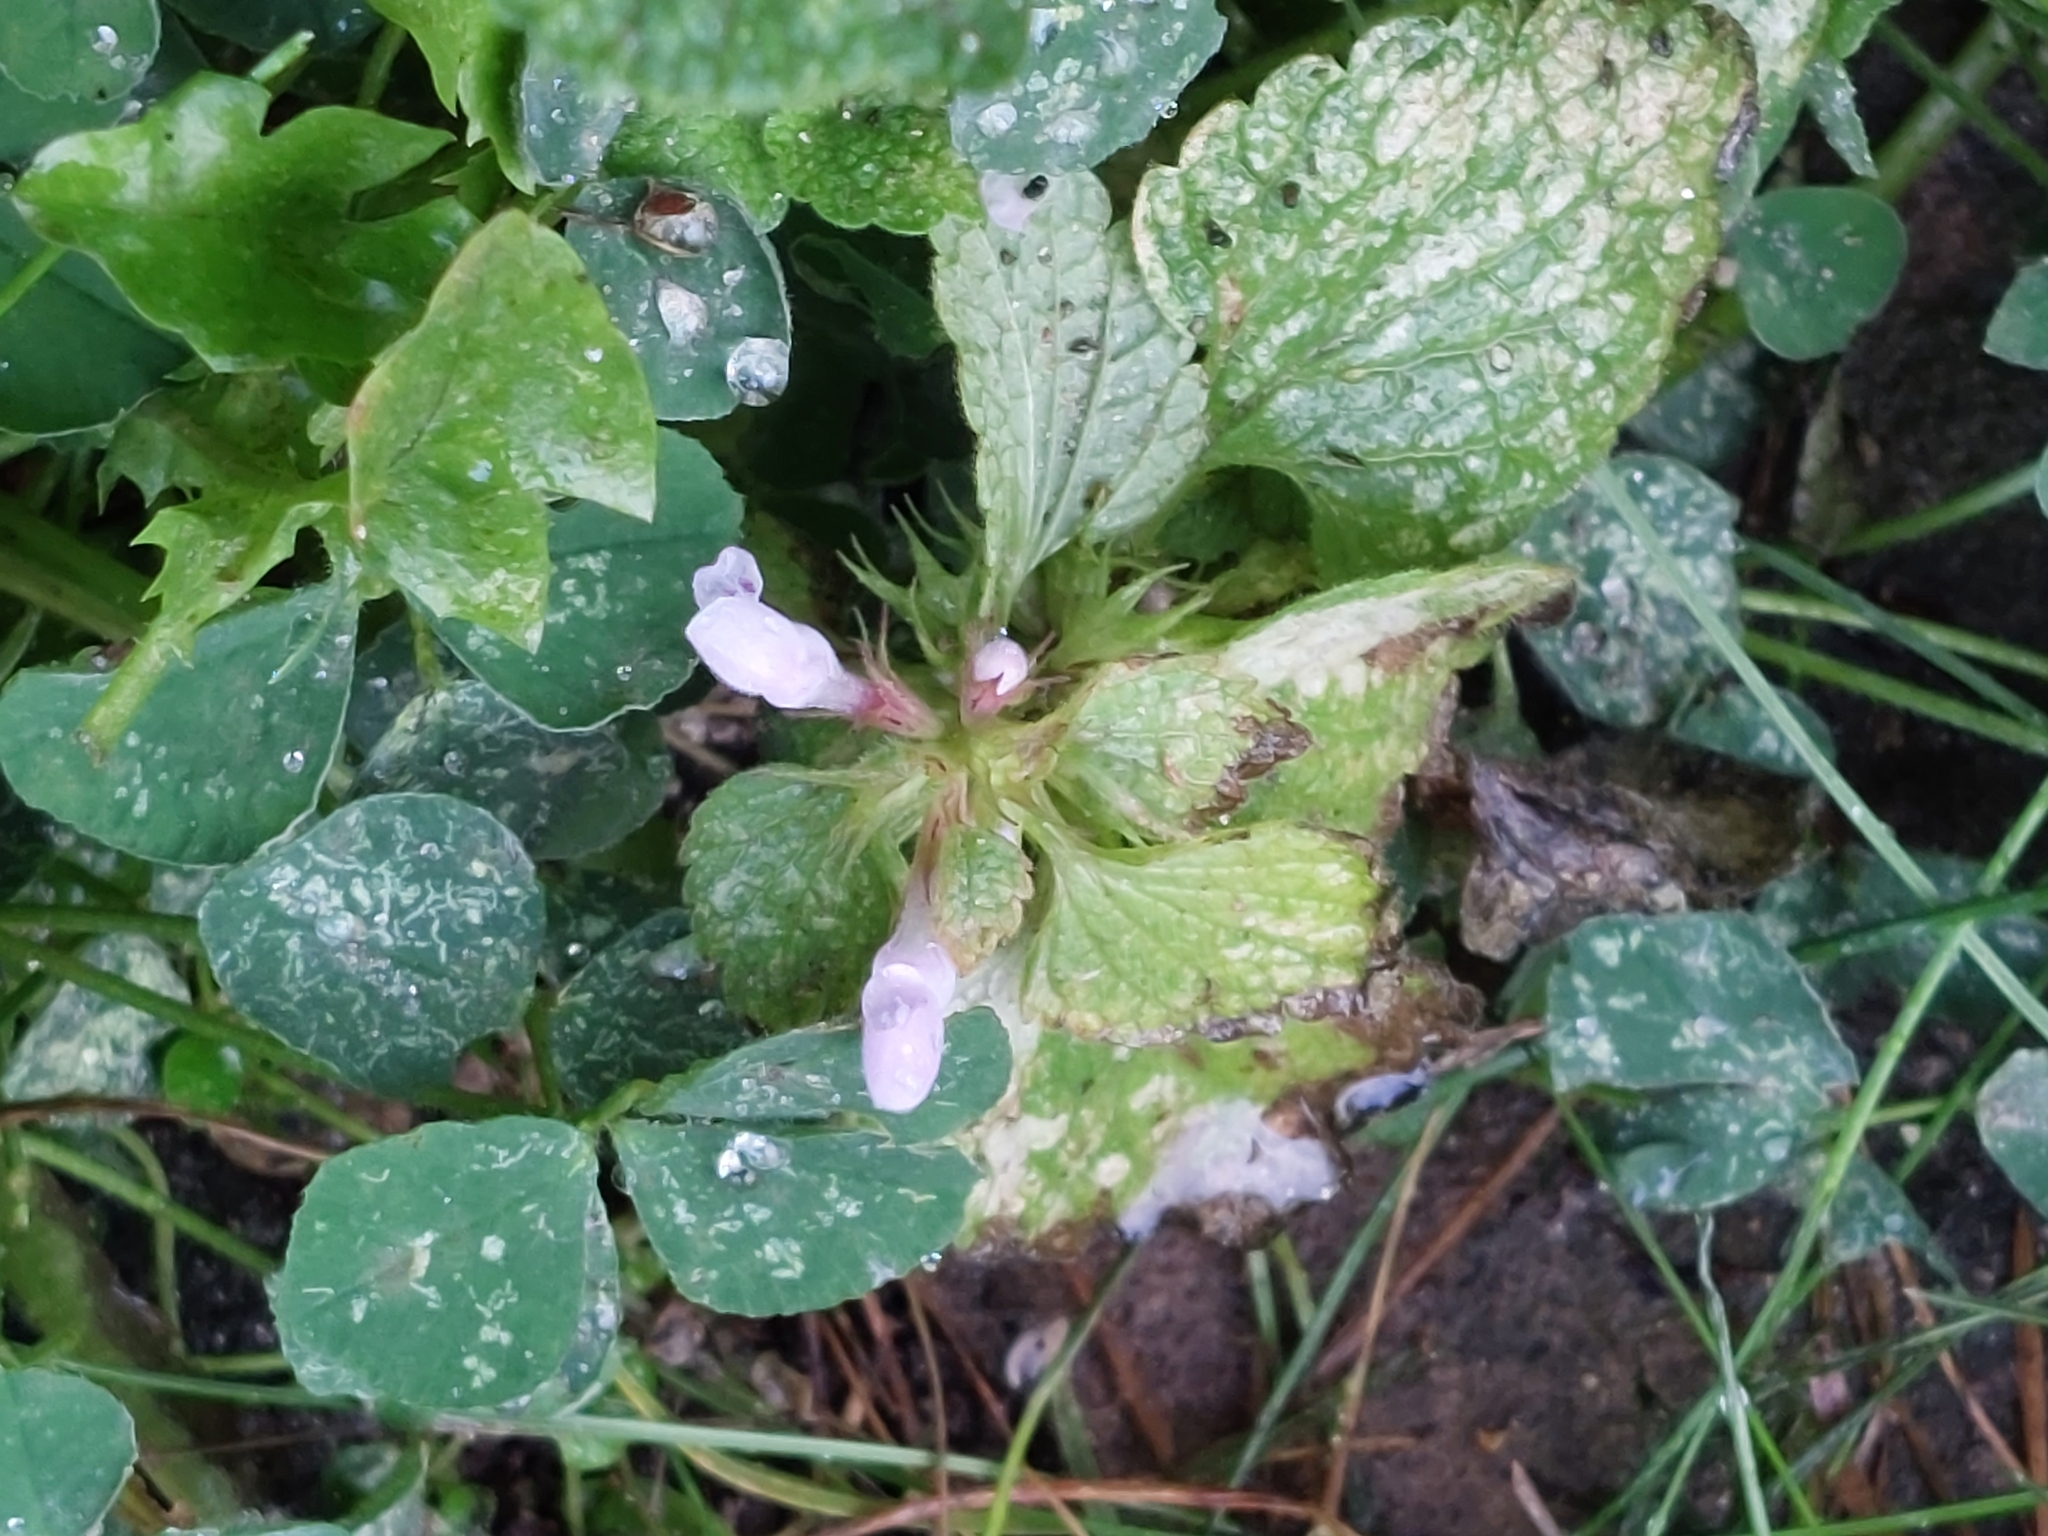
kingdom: Plantae
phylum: Tracheophyta
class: Magnoliopsida
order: Lamiales
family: Lamiaceae
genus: Lamium
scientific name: Lamium purpureum
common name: Red dead-nettle
